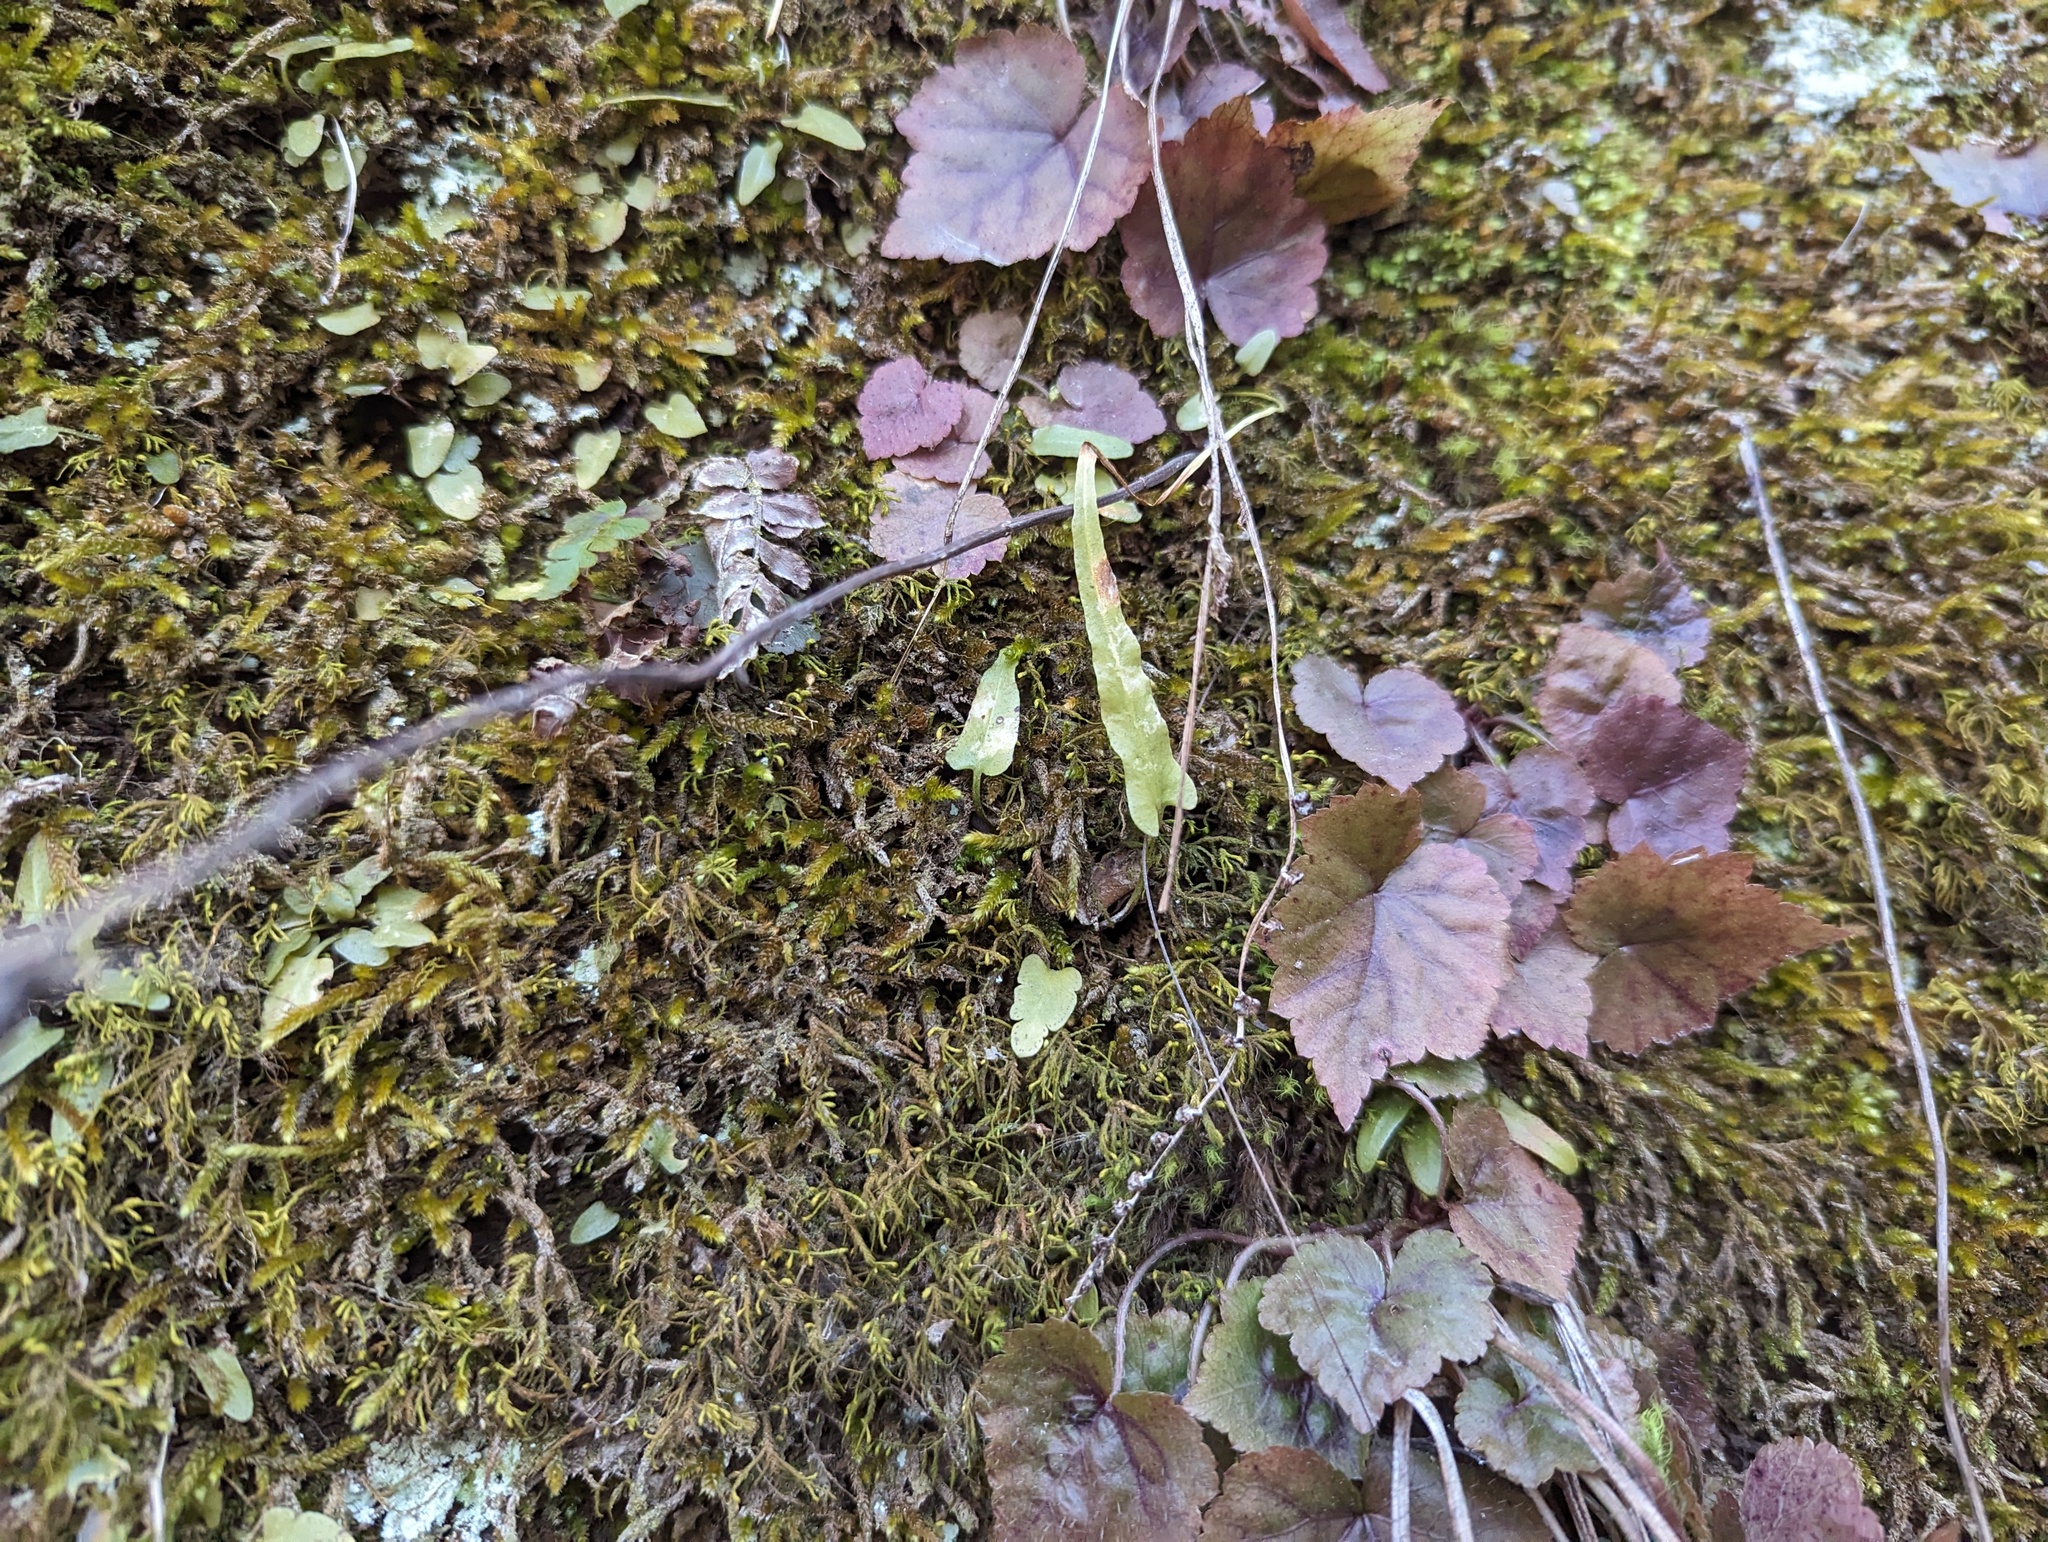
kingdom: Plantae
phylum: Tracheophyta
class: Polypodiopsida
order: Polypodiales
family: Aspleniaceae
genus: Asplenium
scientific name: Asplenium rhizophyllum
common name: Walking fern
